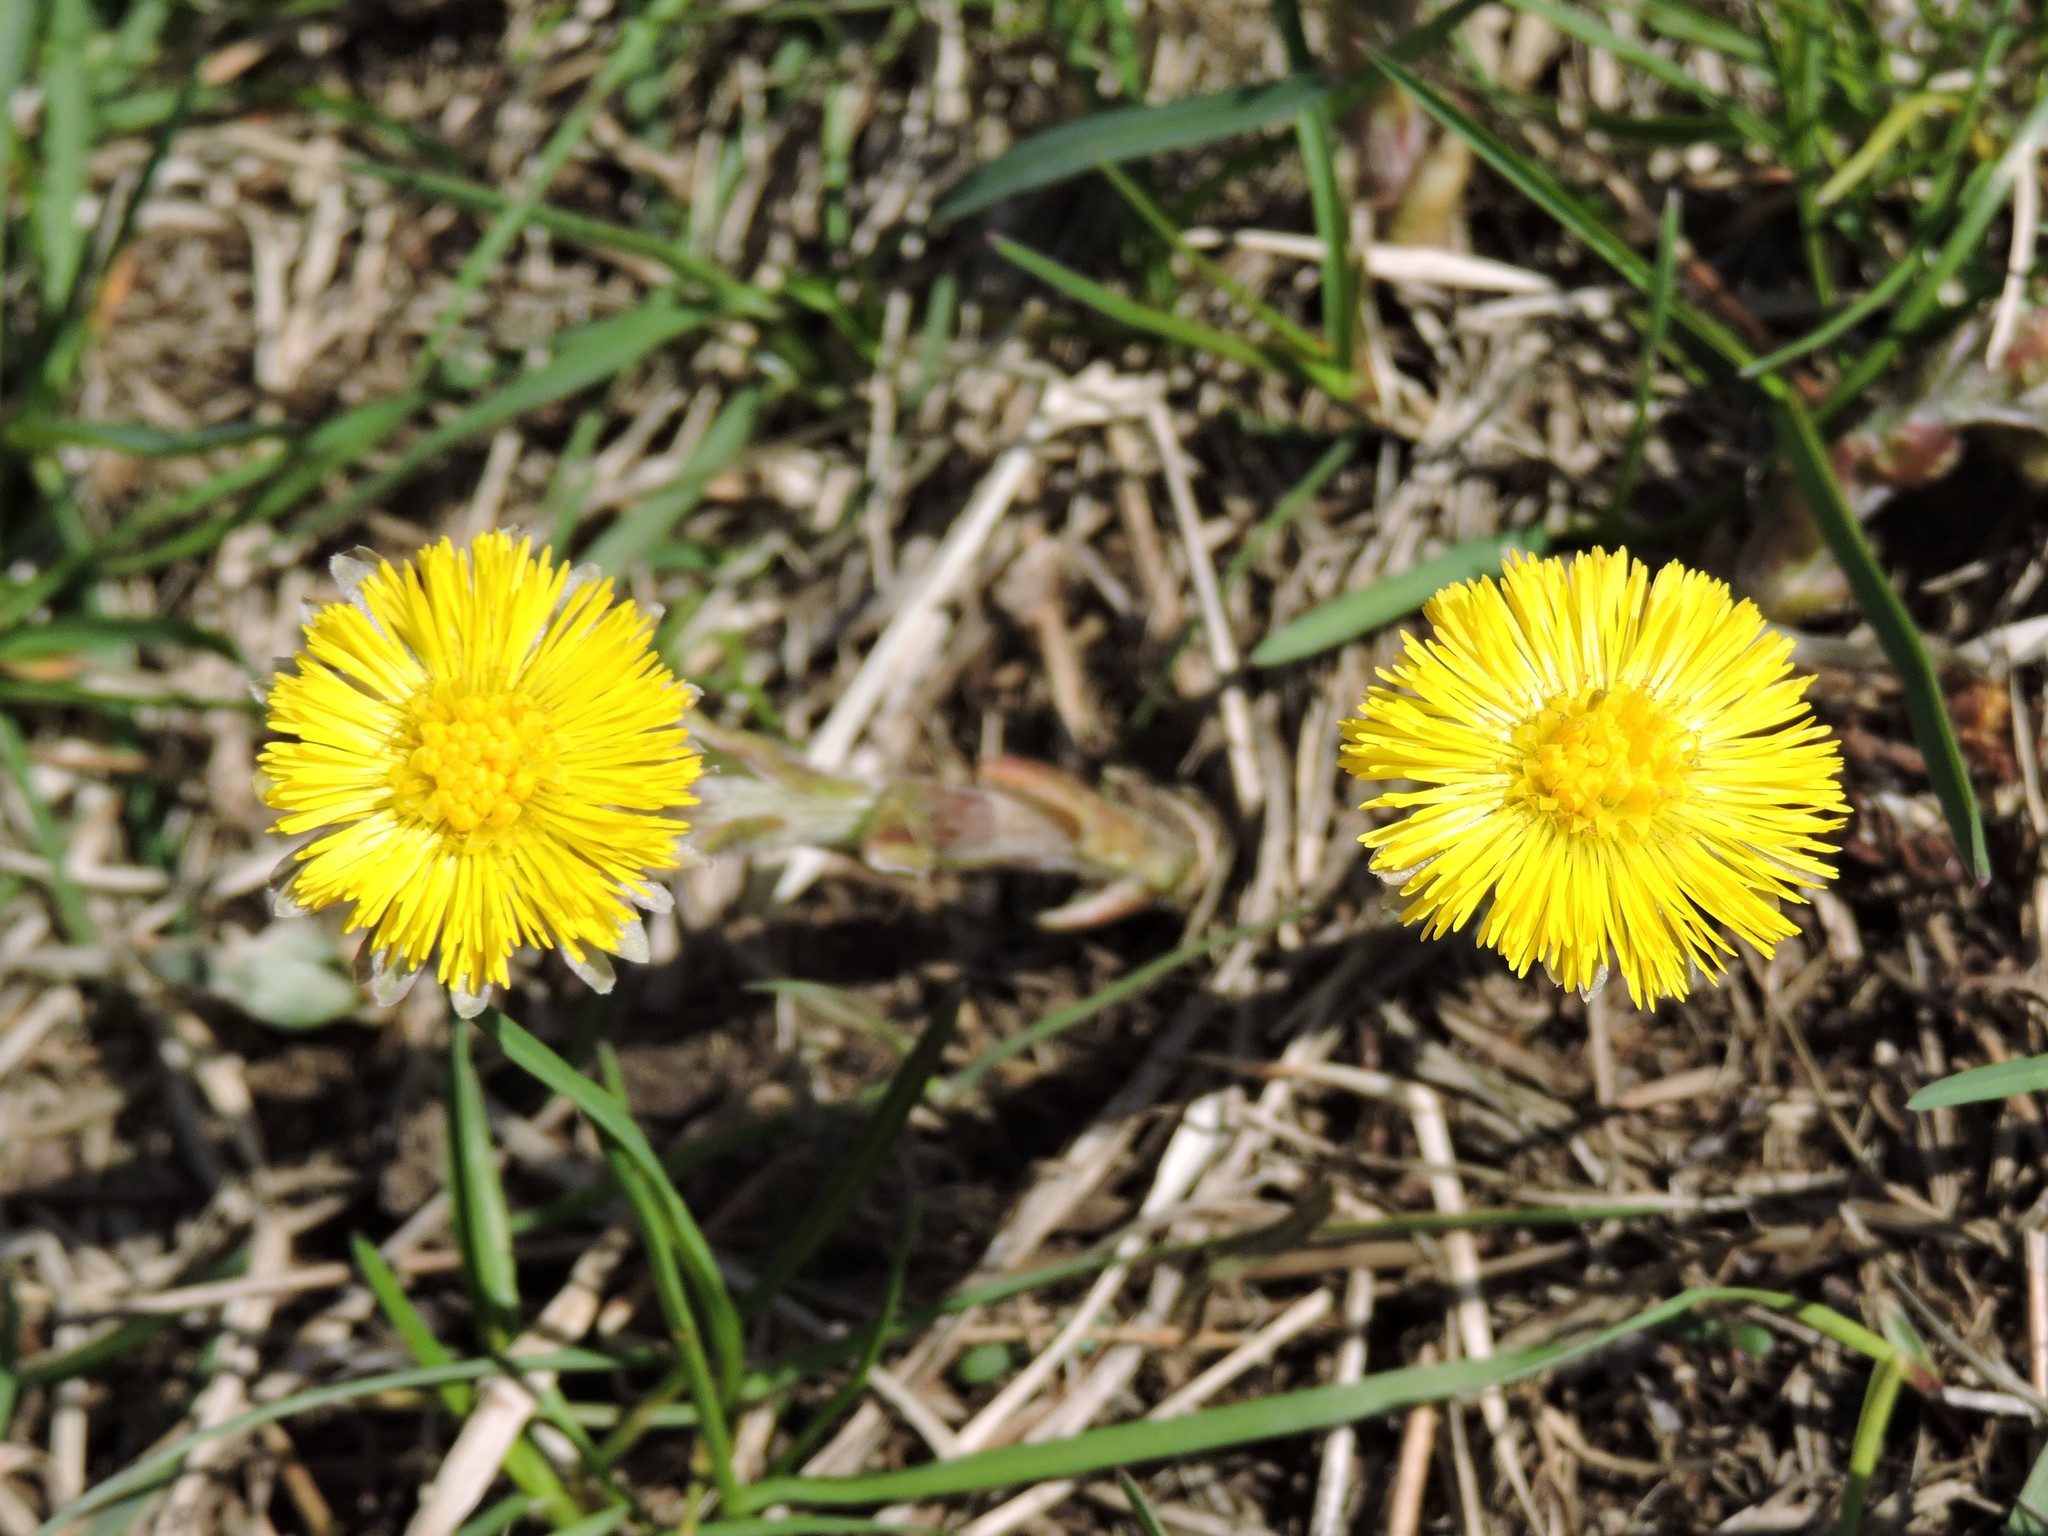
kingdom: Plantae
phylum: Tracheophyta
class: Magnoliopsida
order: Asterales
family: Asteraceae
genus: Tussilago
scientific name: Tussilago farfara
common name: Coltsfoot
